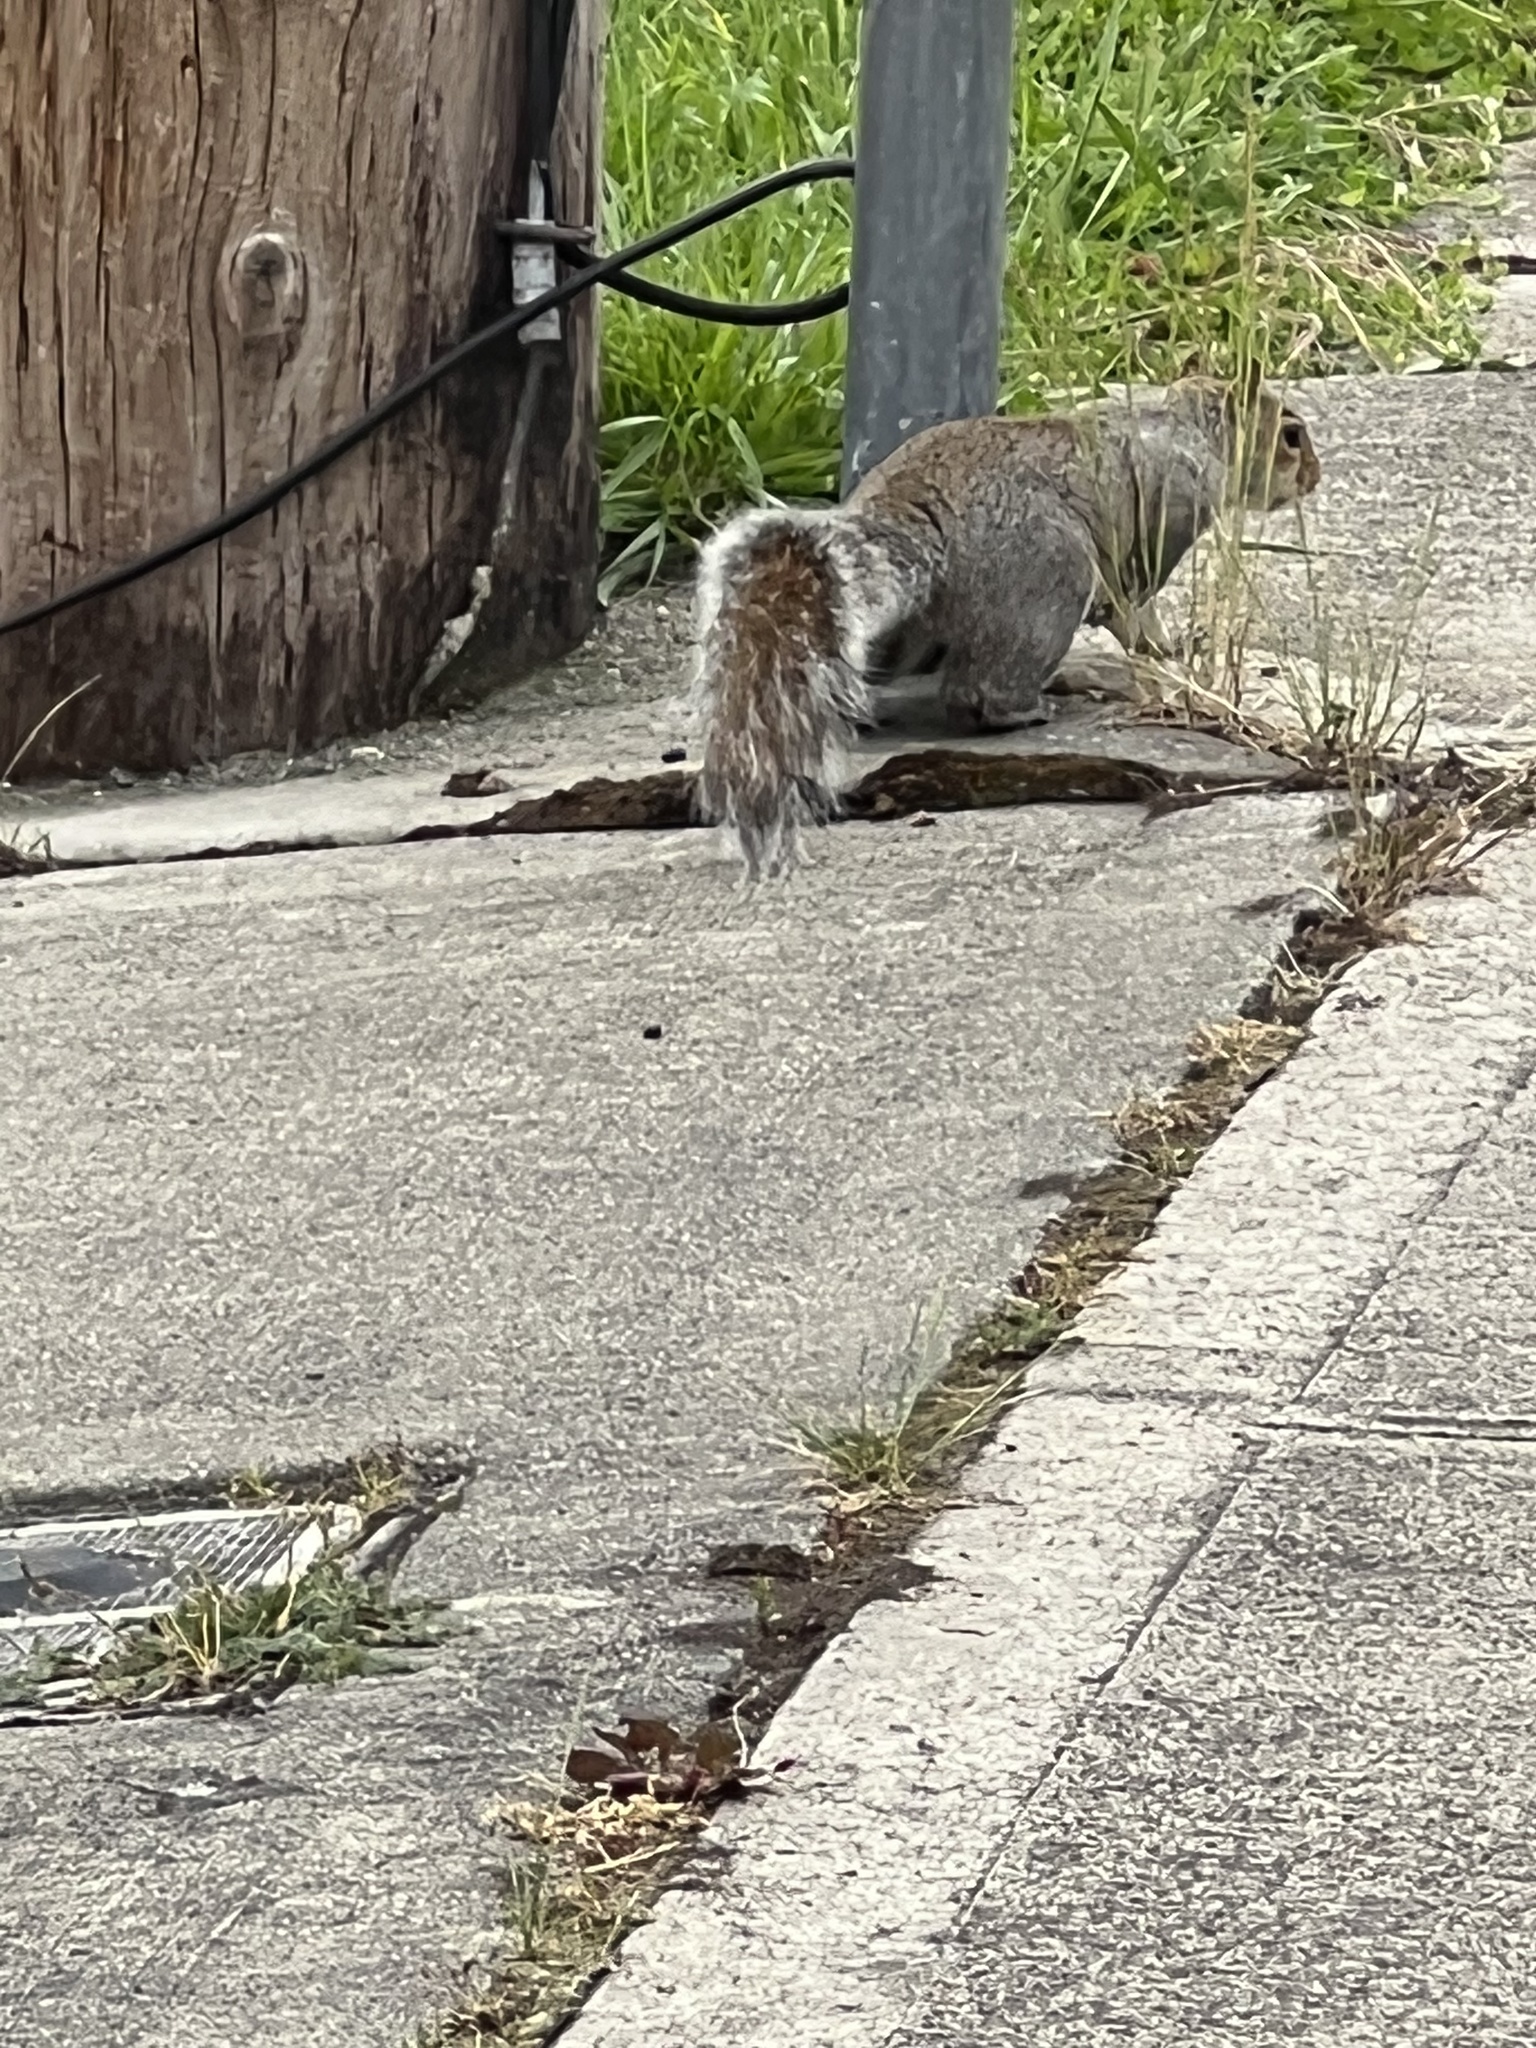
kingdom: Animalia
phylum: Chordata
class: Mammalia
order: Rodentia
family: Sciuridae
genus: Sciurus
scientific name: Sciurus carolinensis
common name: Eastern gray squirrel
